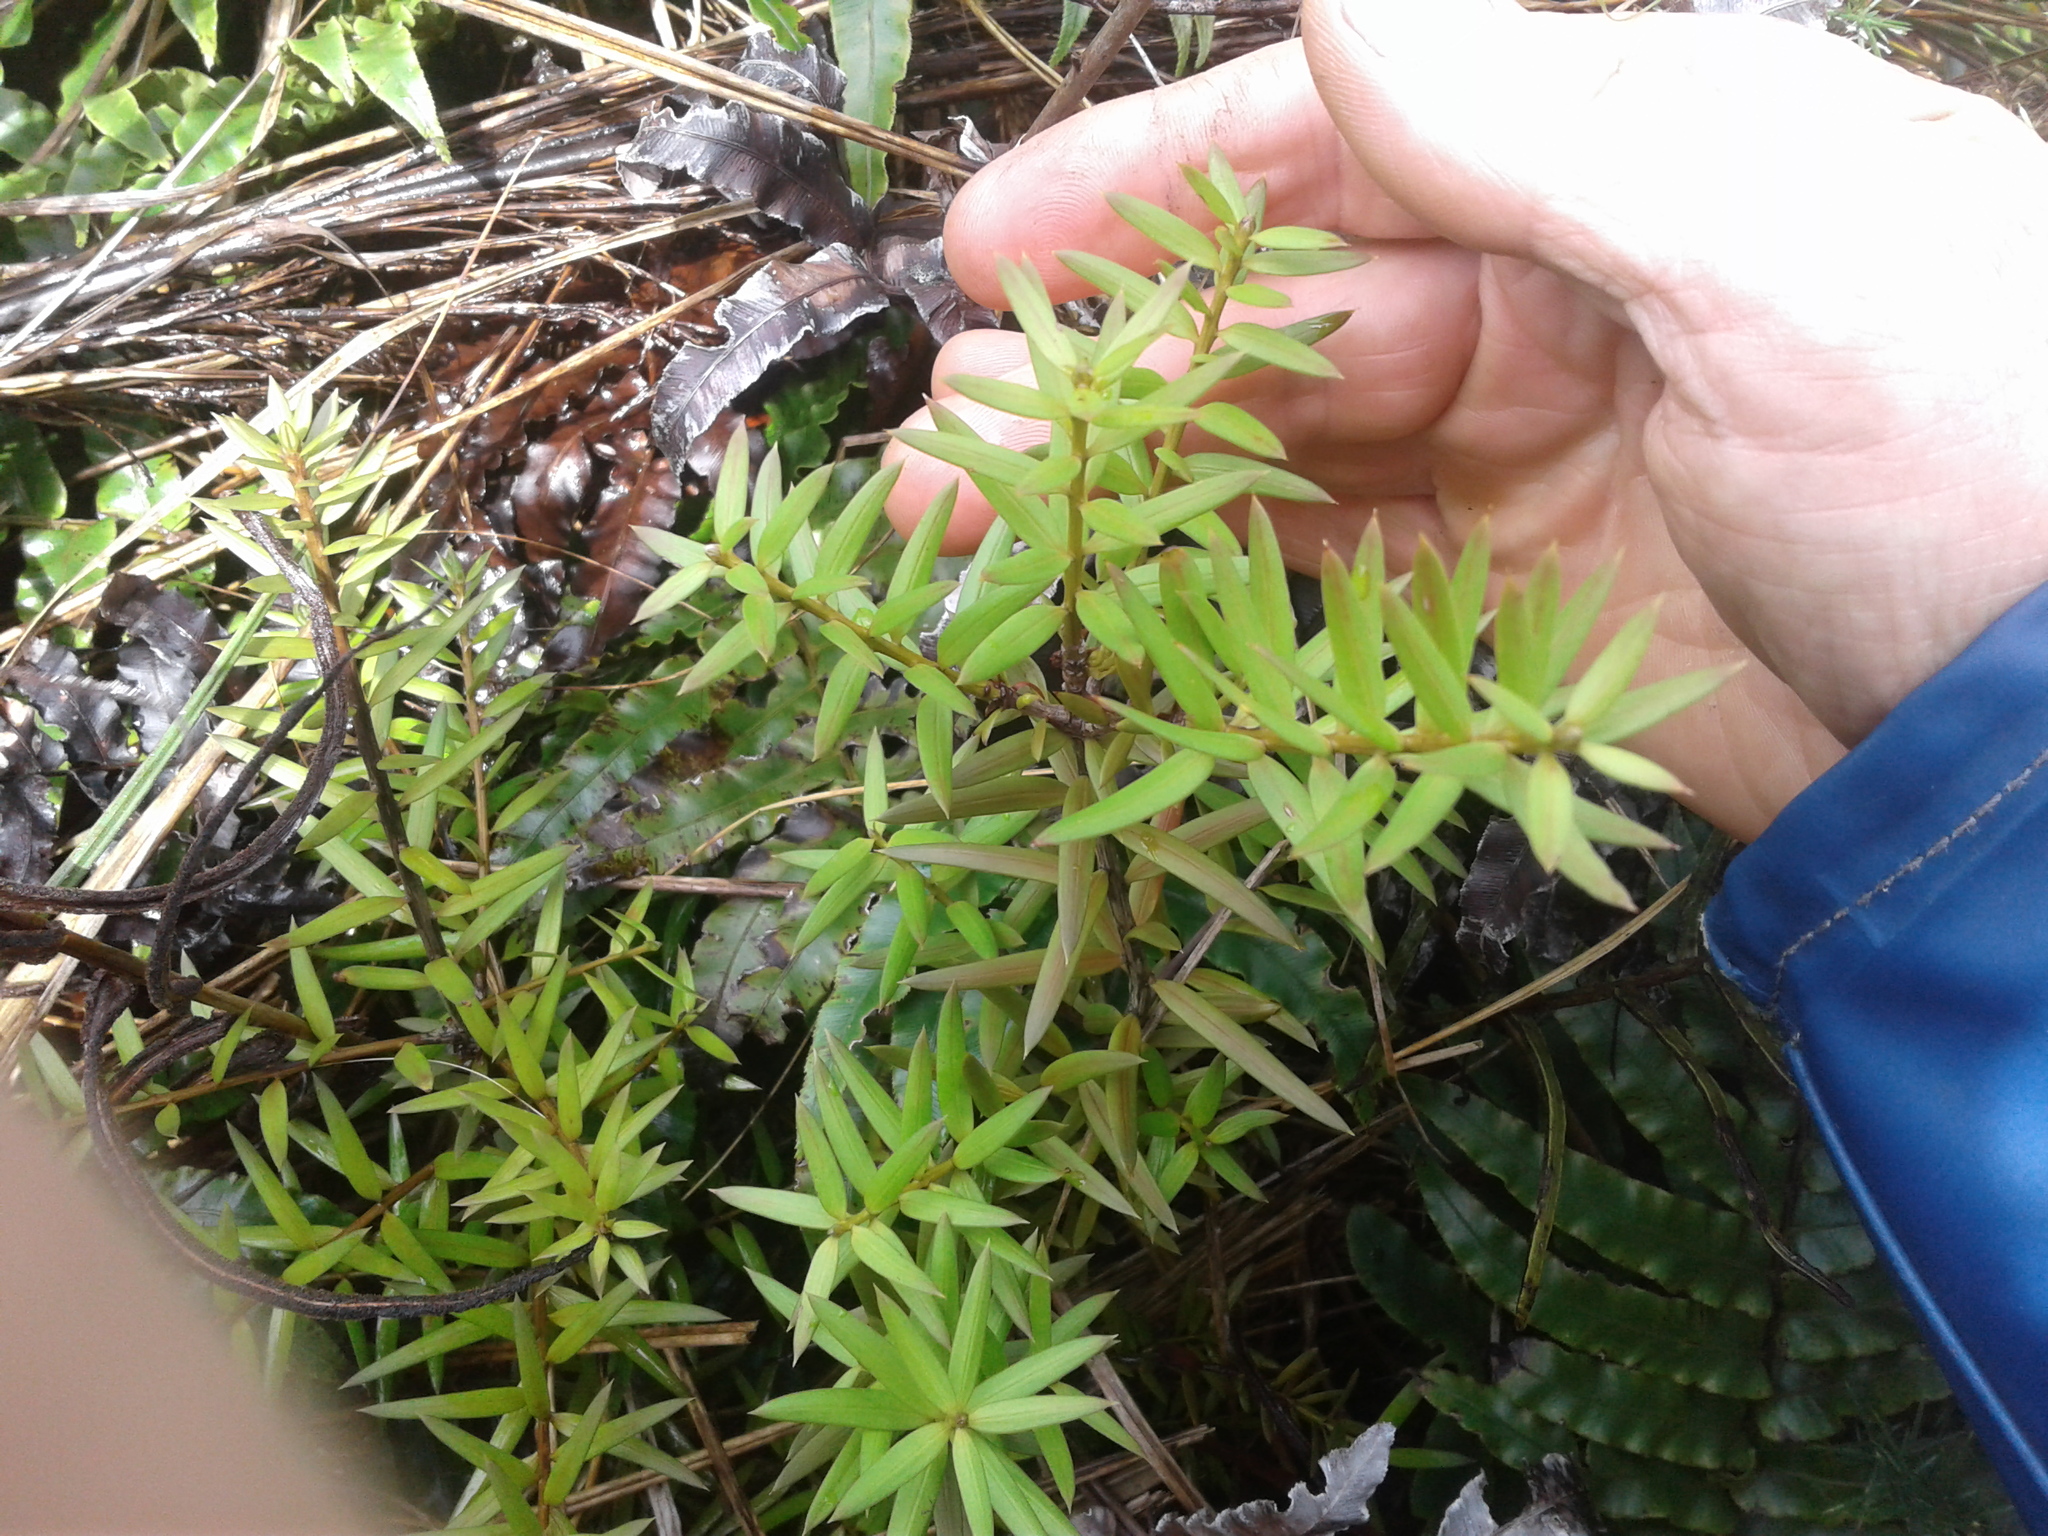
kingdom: Plantae
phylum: Tracheophyta
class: Pinopsida
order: Pinales
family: Podocarpaceae
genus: Podocarpus
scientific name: Podocarpus laetus
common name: Hall's totara
